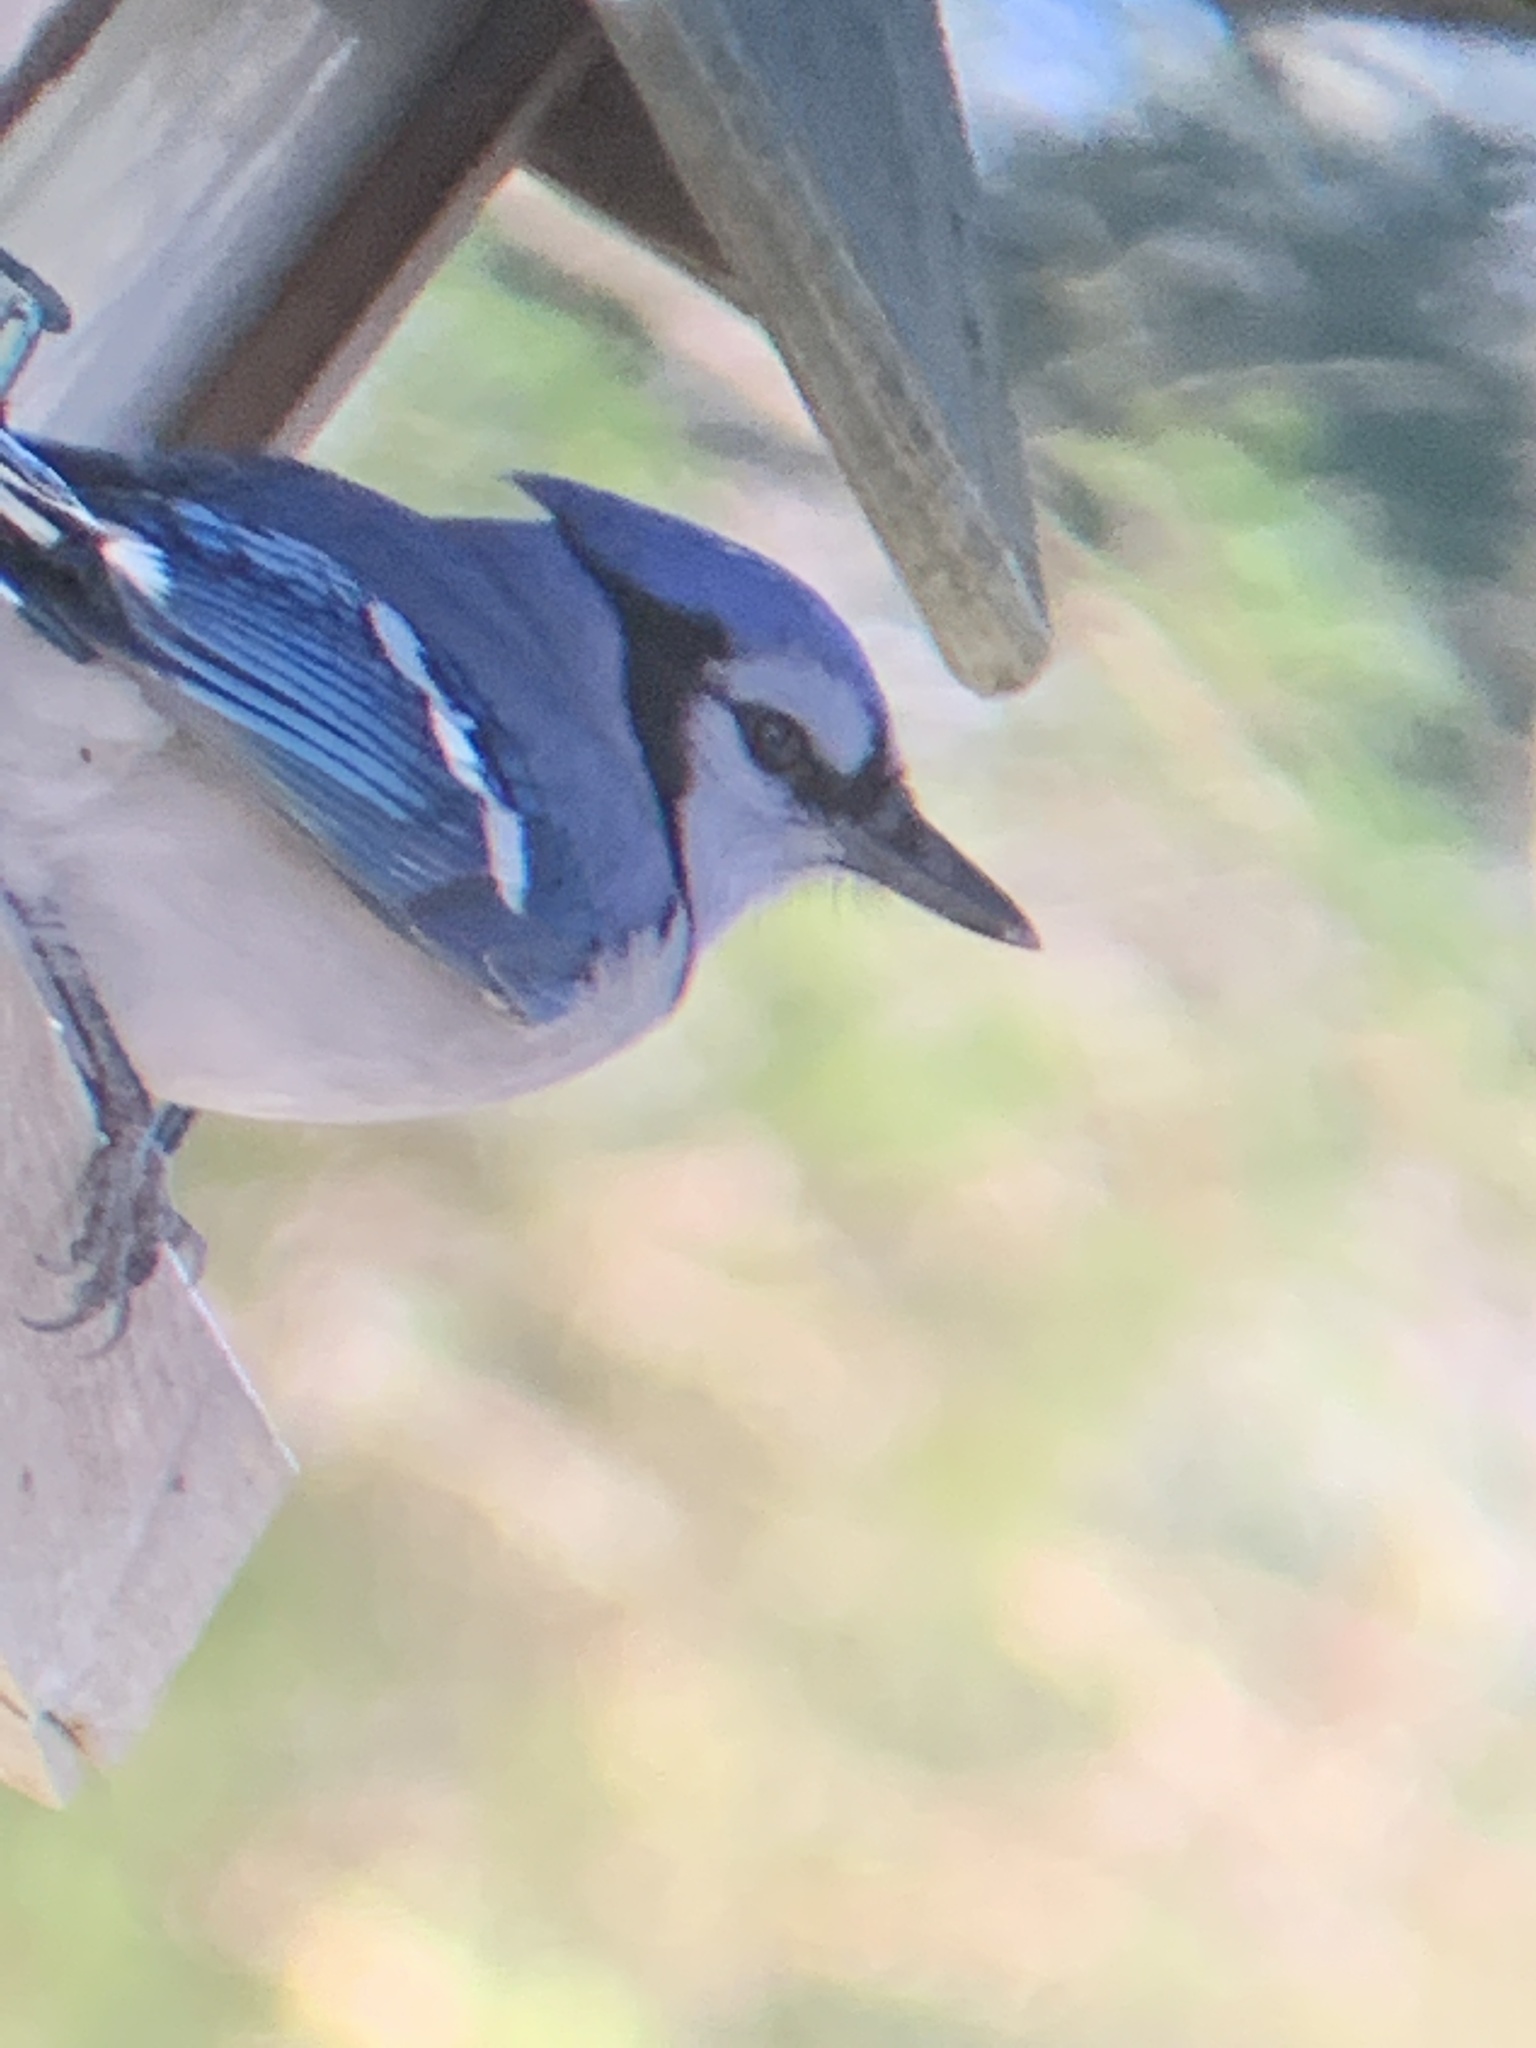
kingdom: Animalia
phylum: Chordata
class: Aves
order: Passeriformes
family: Corvidae
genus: Cyanocitta
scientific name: Cyanocitta cristata
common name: Blue jay
